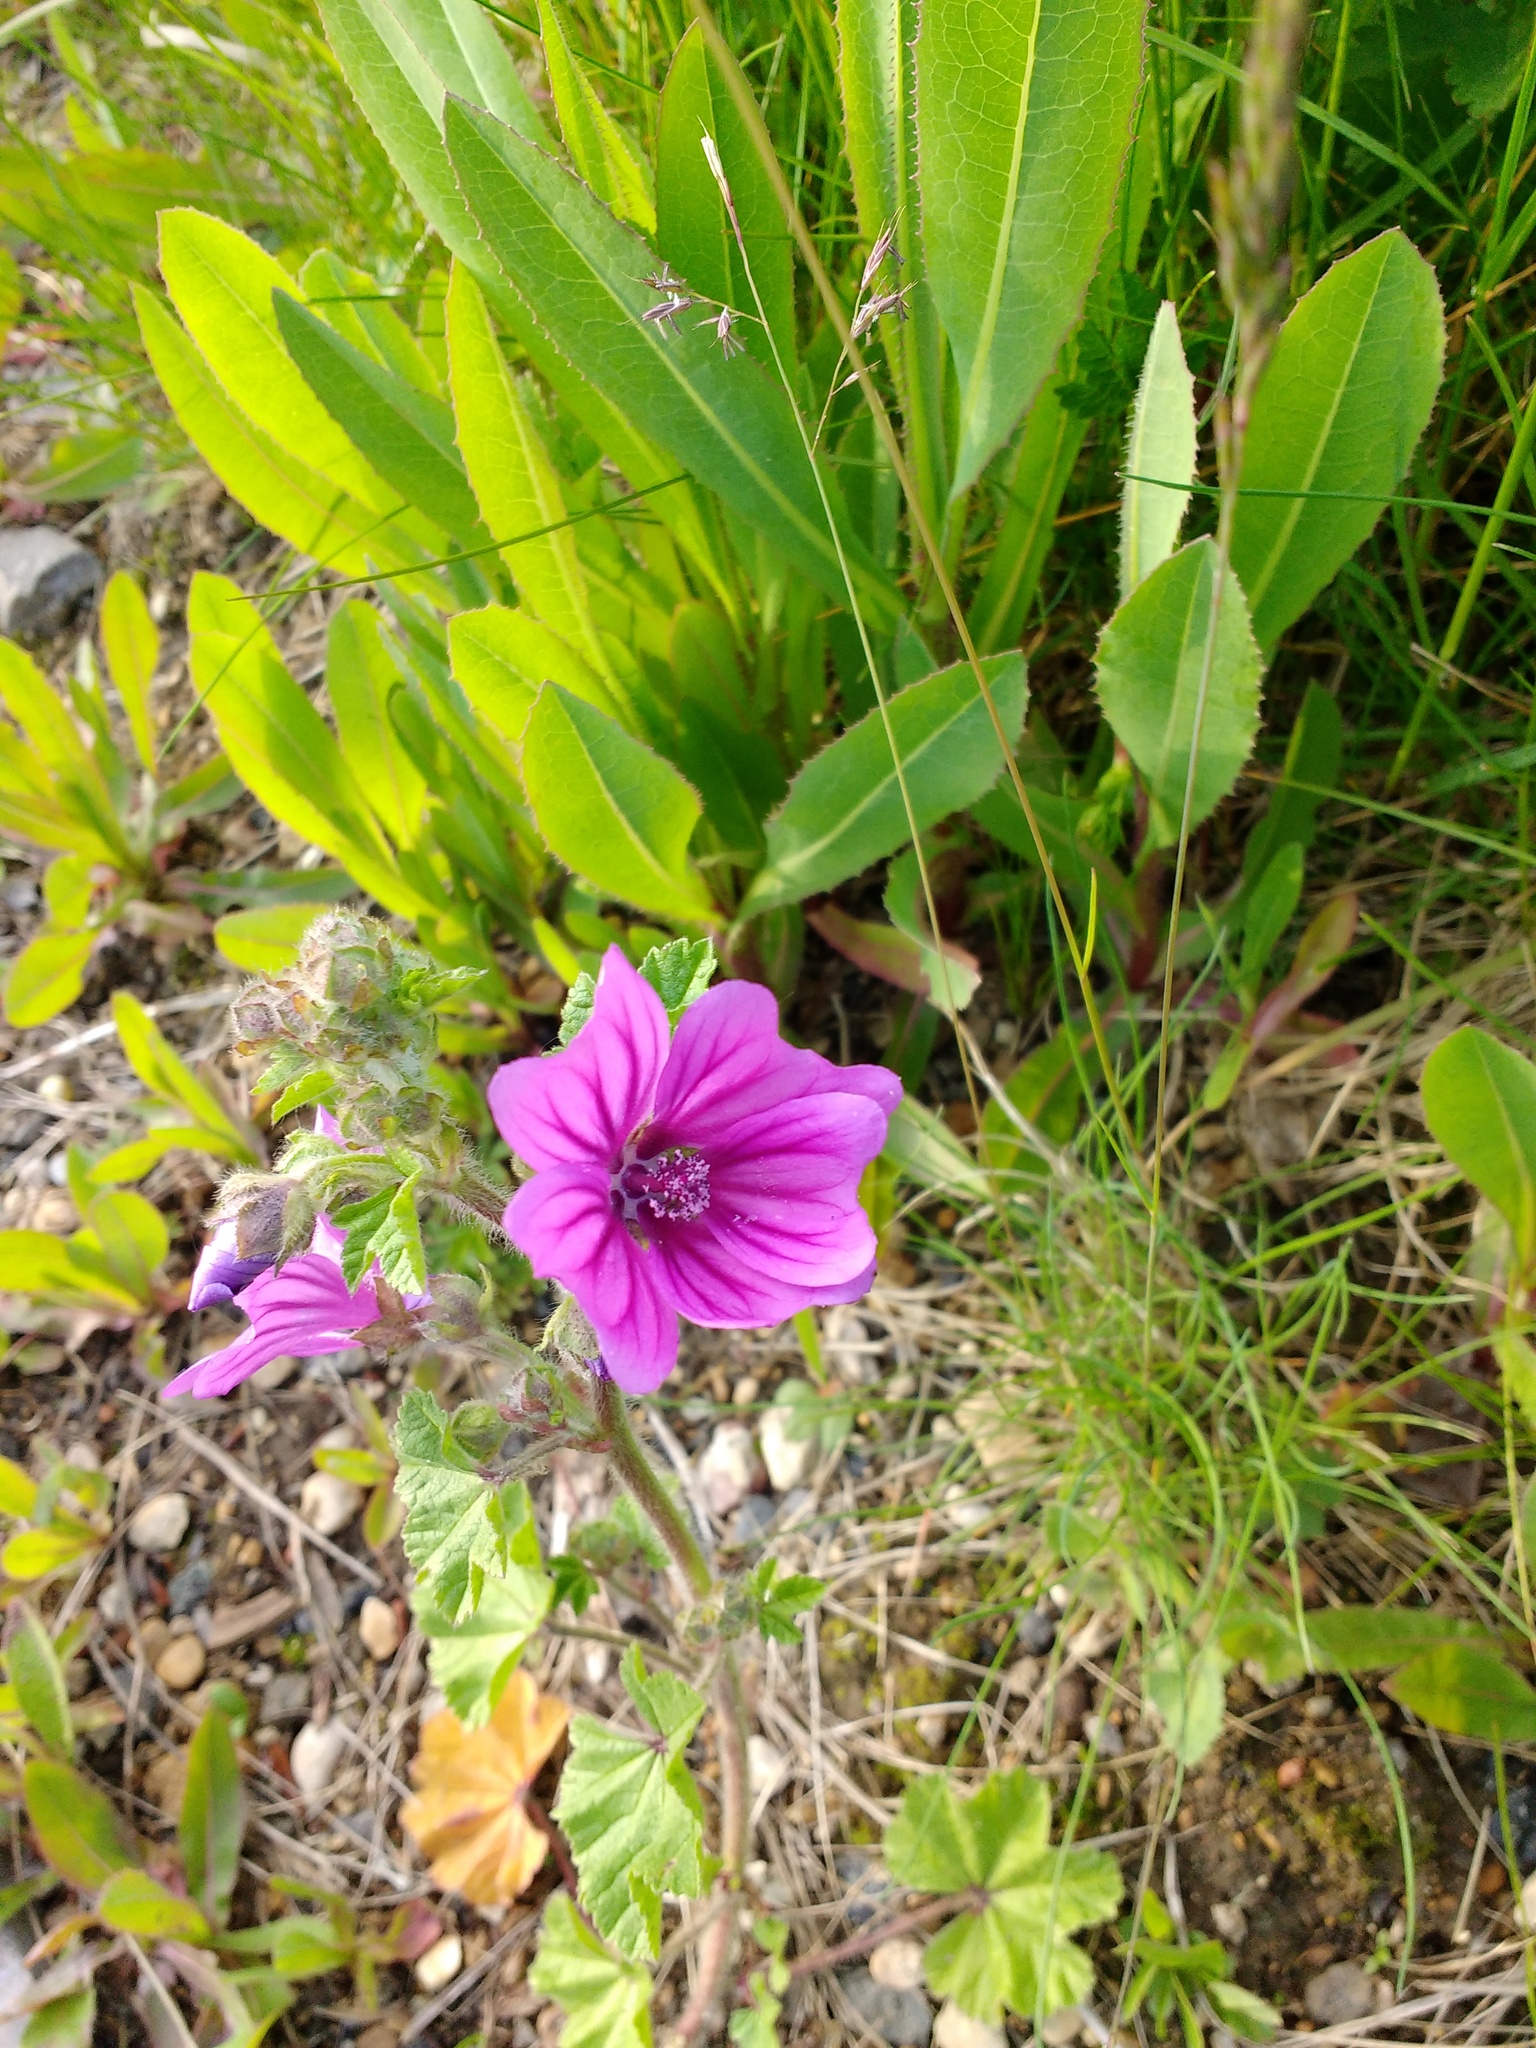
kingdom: Plantae
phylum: Tracheophyta
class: Magnoliopsida
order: Malvales
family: Malvaceae
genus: Malva
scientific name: Malva sylvestris
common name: Common mallow
